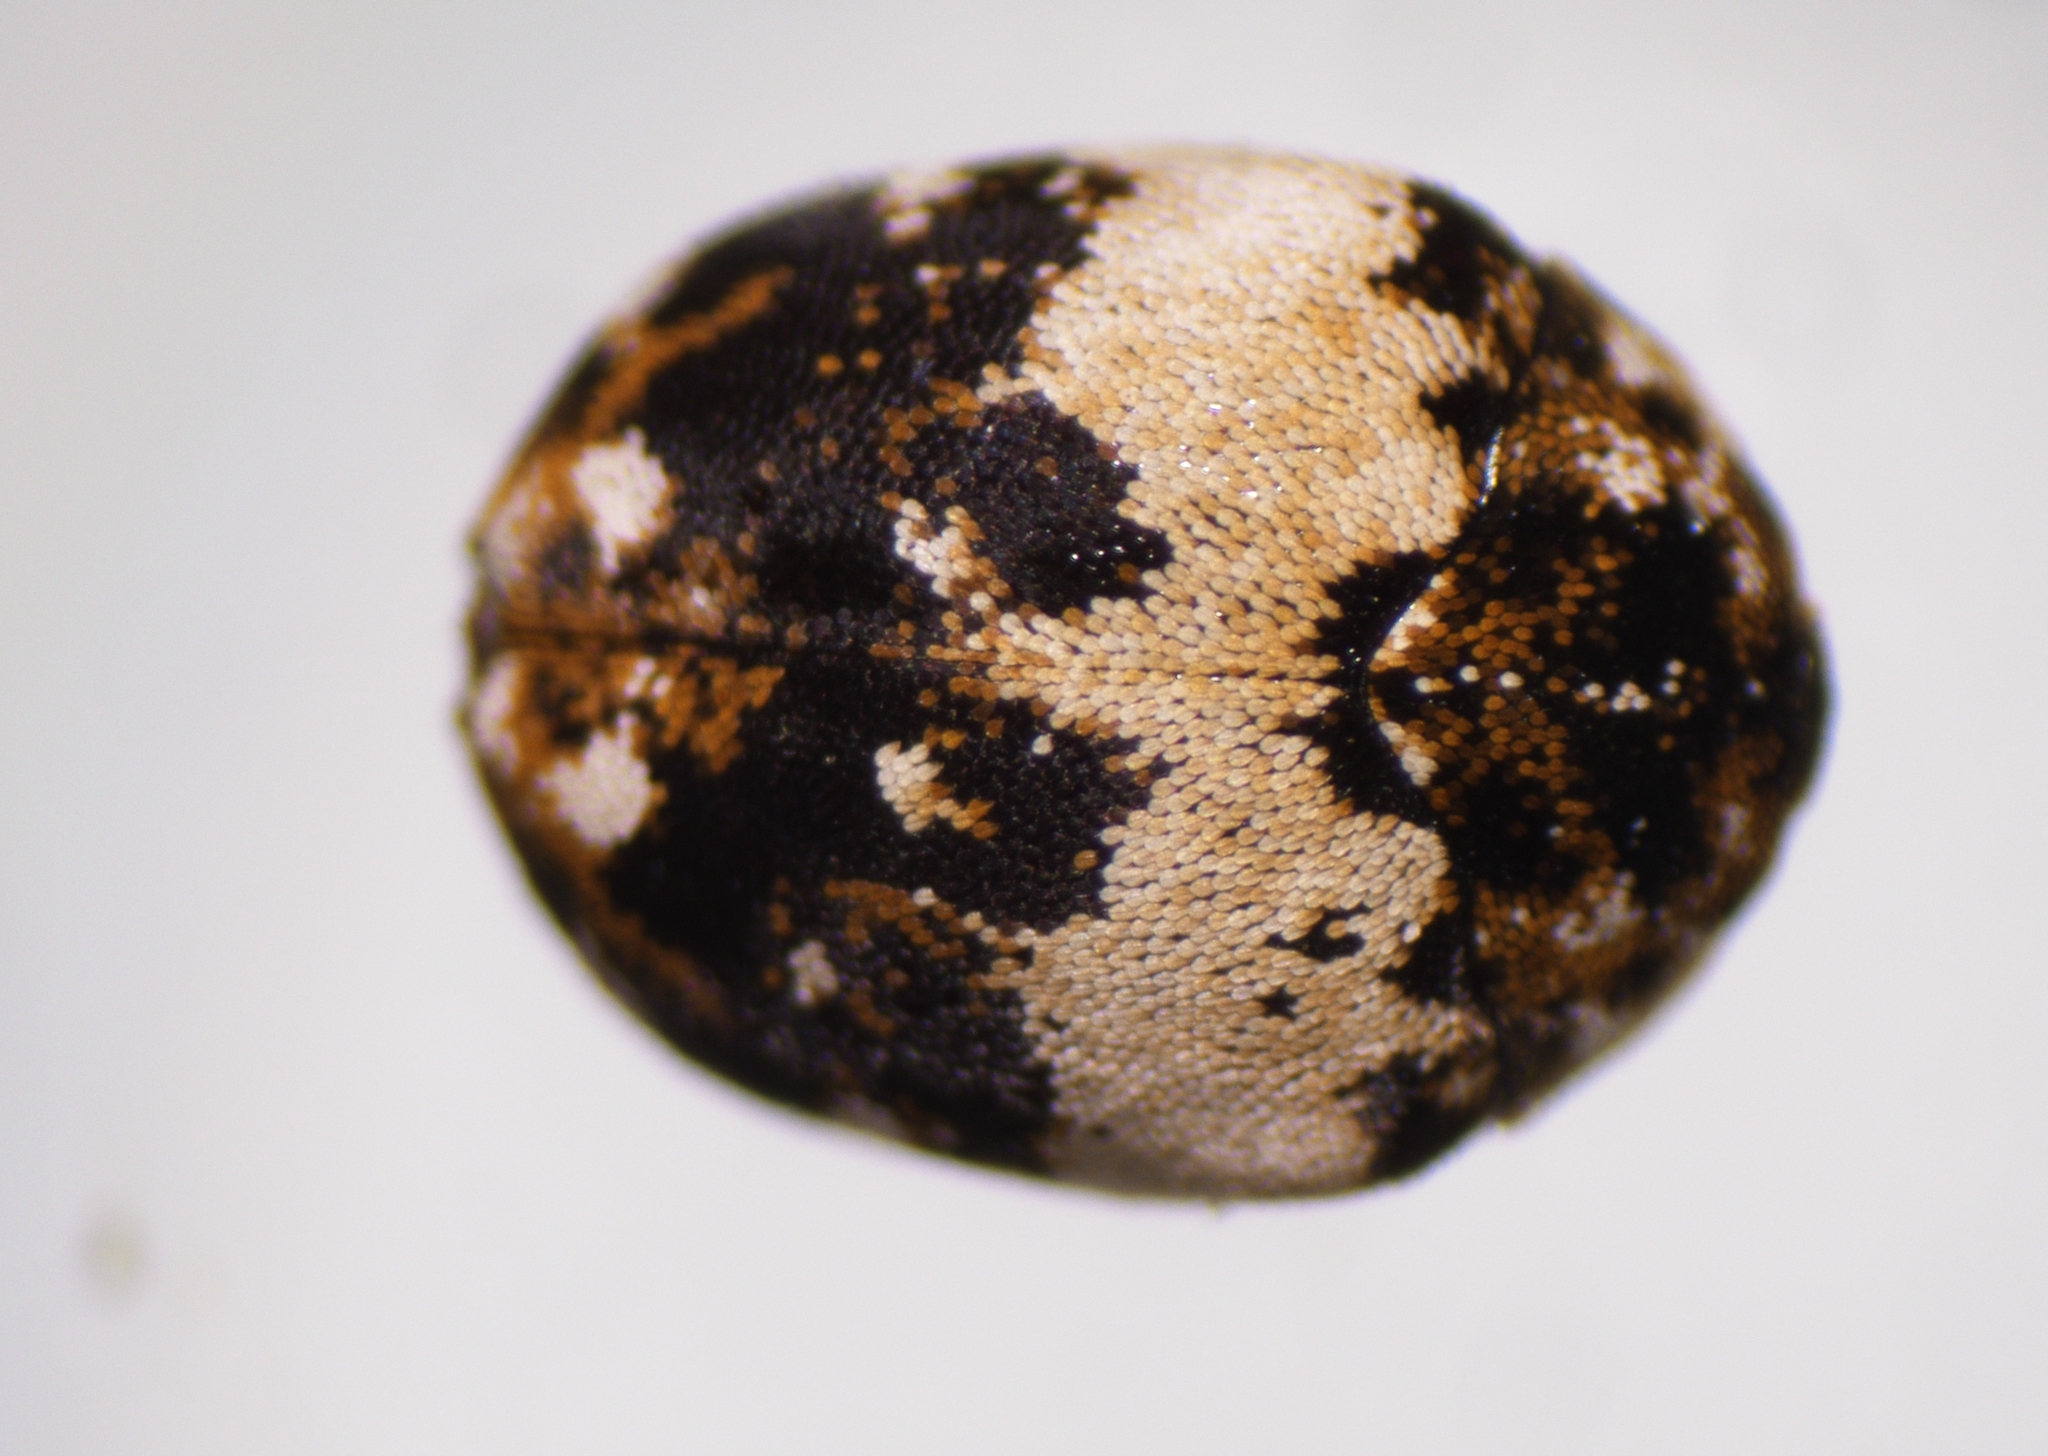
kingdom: Animalia
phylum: Arthropoda
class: Insecta
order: Coleoptera
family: Dermestidae
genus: Anthrenus
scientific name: Anthrenus oceanicus
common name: Skin beetle
